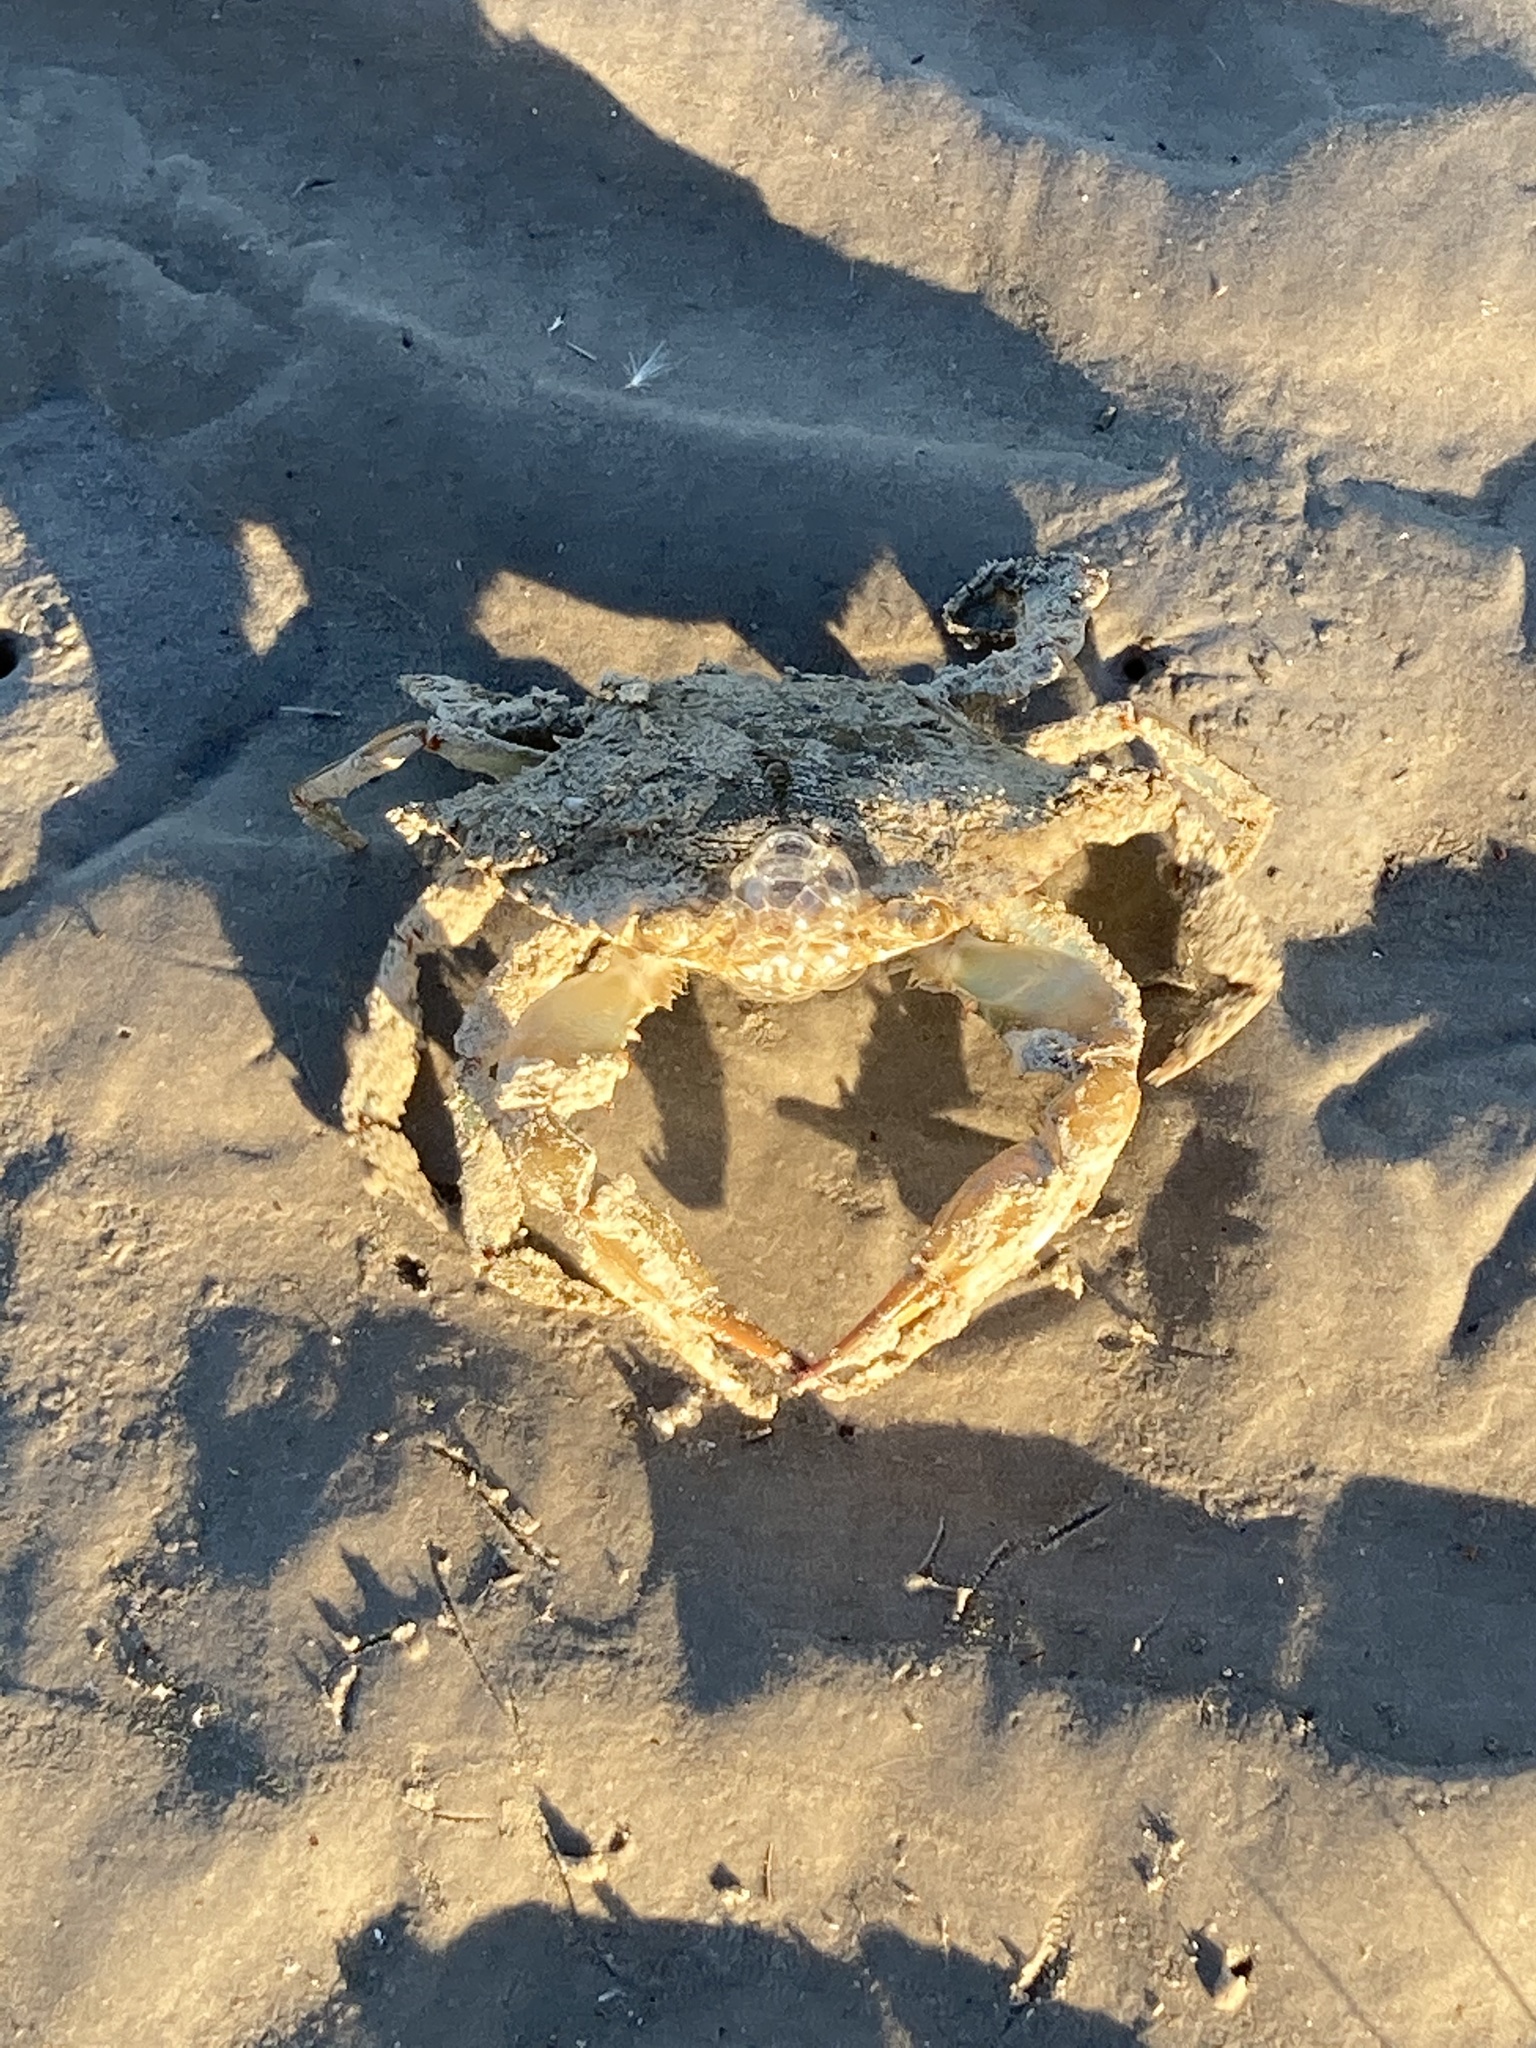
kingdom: Animalia
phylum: Arthropoda
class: Malacostraca
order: Decapoda
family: Portunidae
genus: Callinectes
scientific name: Callinectes sapidus
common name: Blue crab
